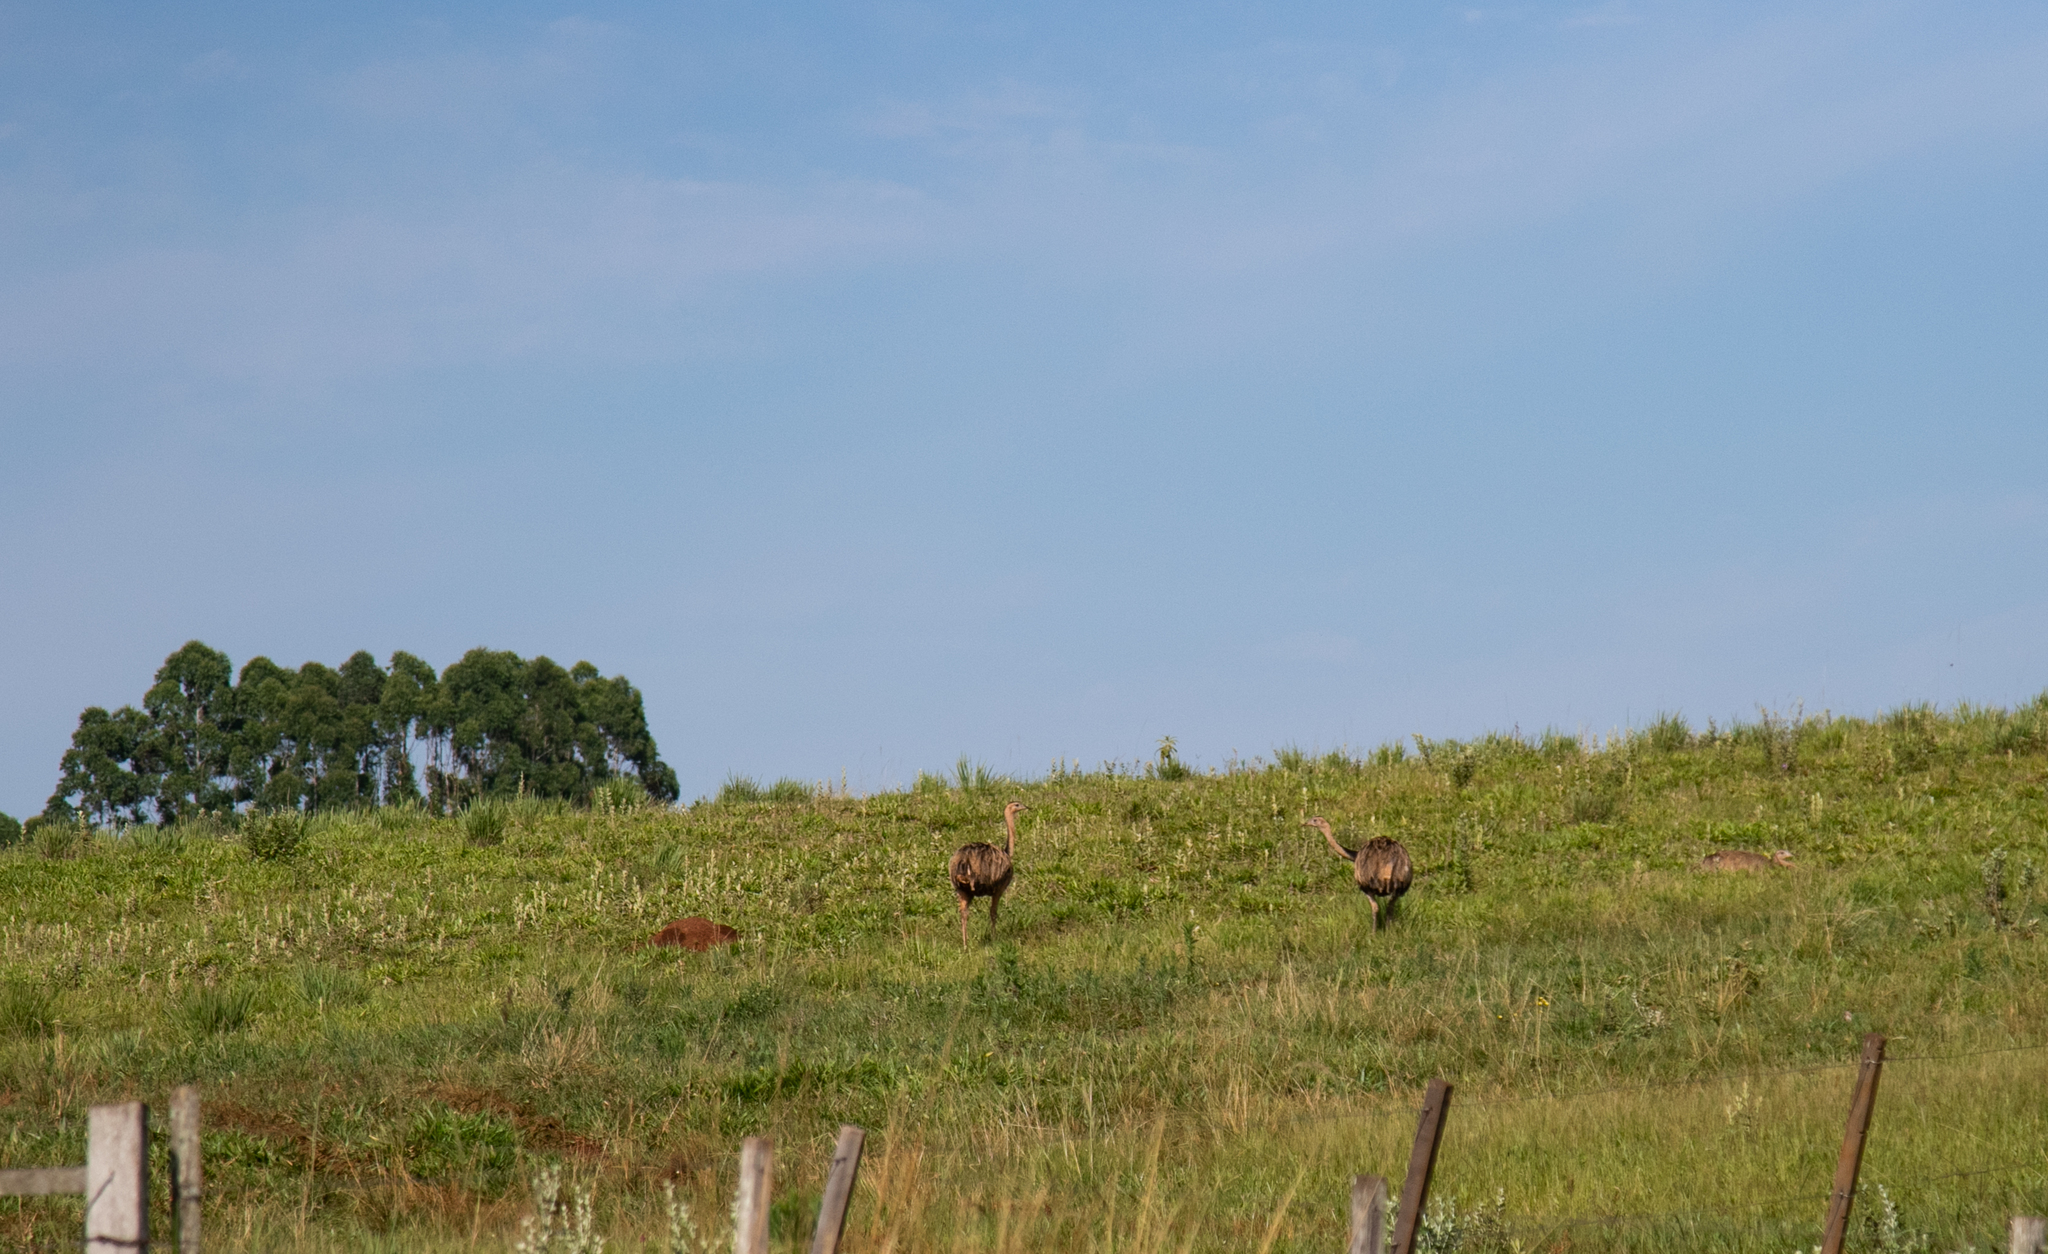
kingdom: Animalia
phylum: Chordata
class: Aves
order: Rheiformes
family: Rheidae
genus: Rhea
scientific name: Rhea americana
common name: Greater rhea
